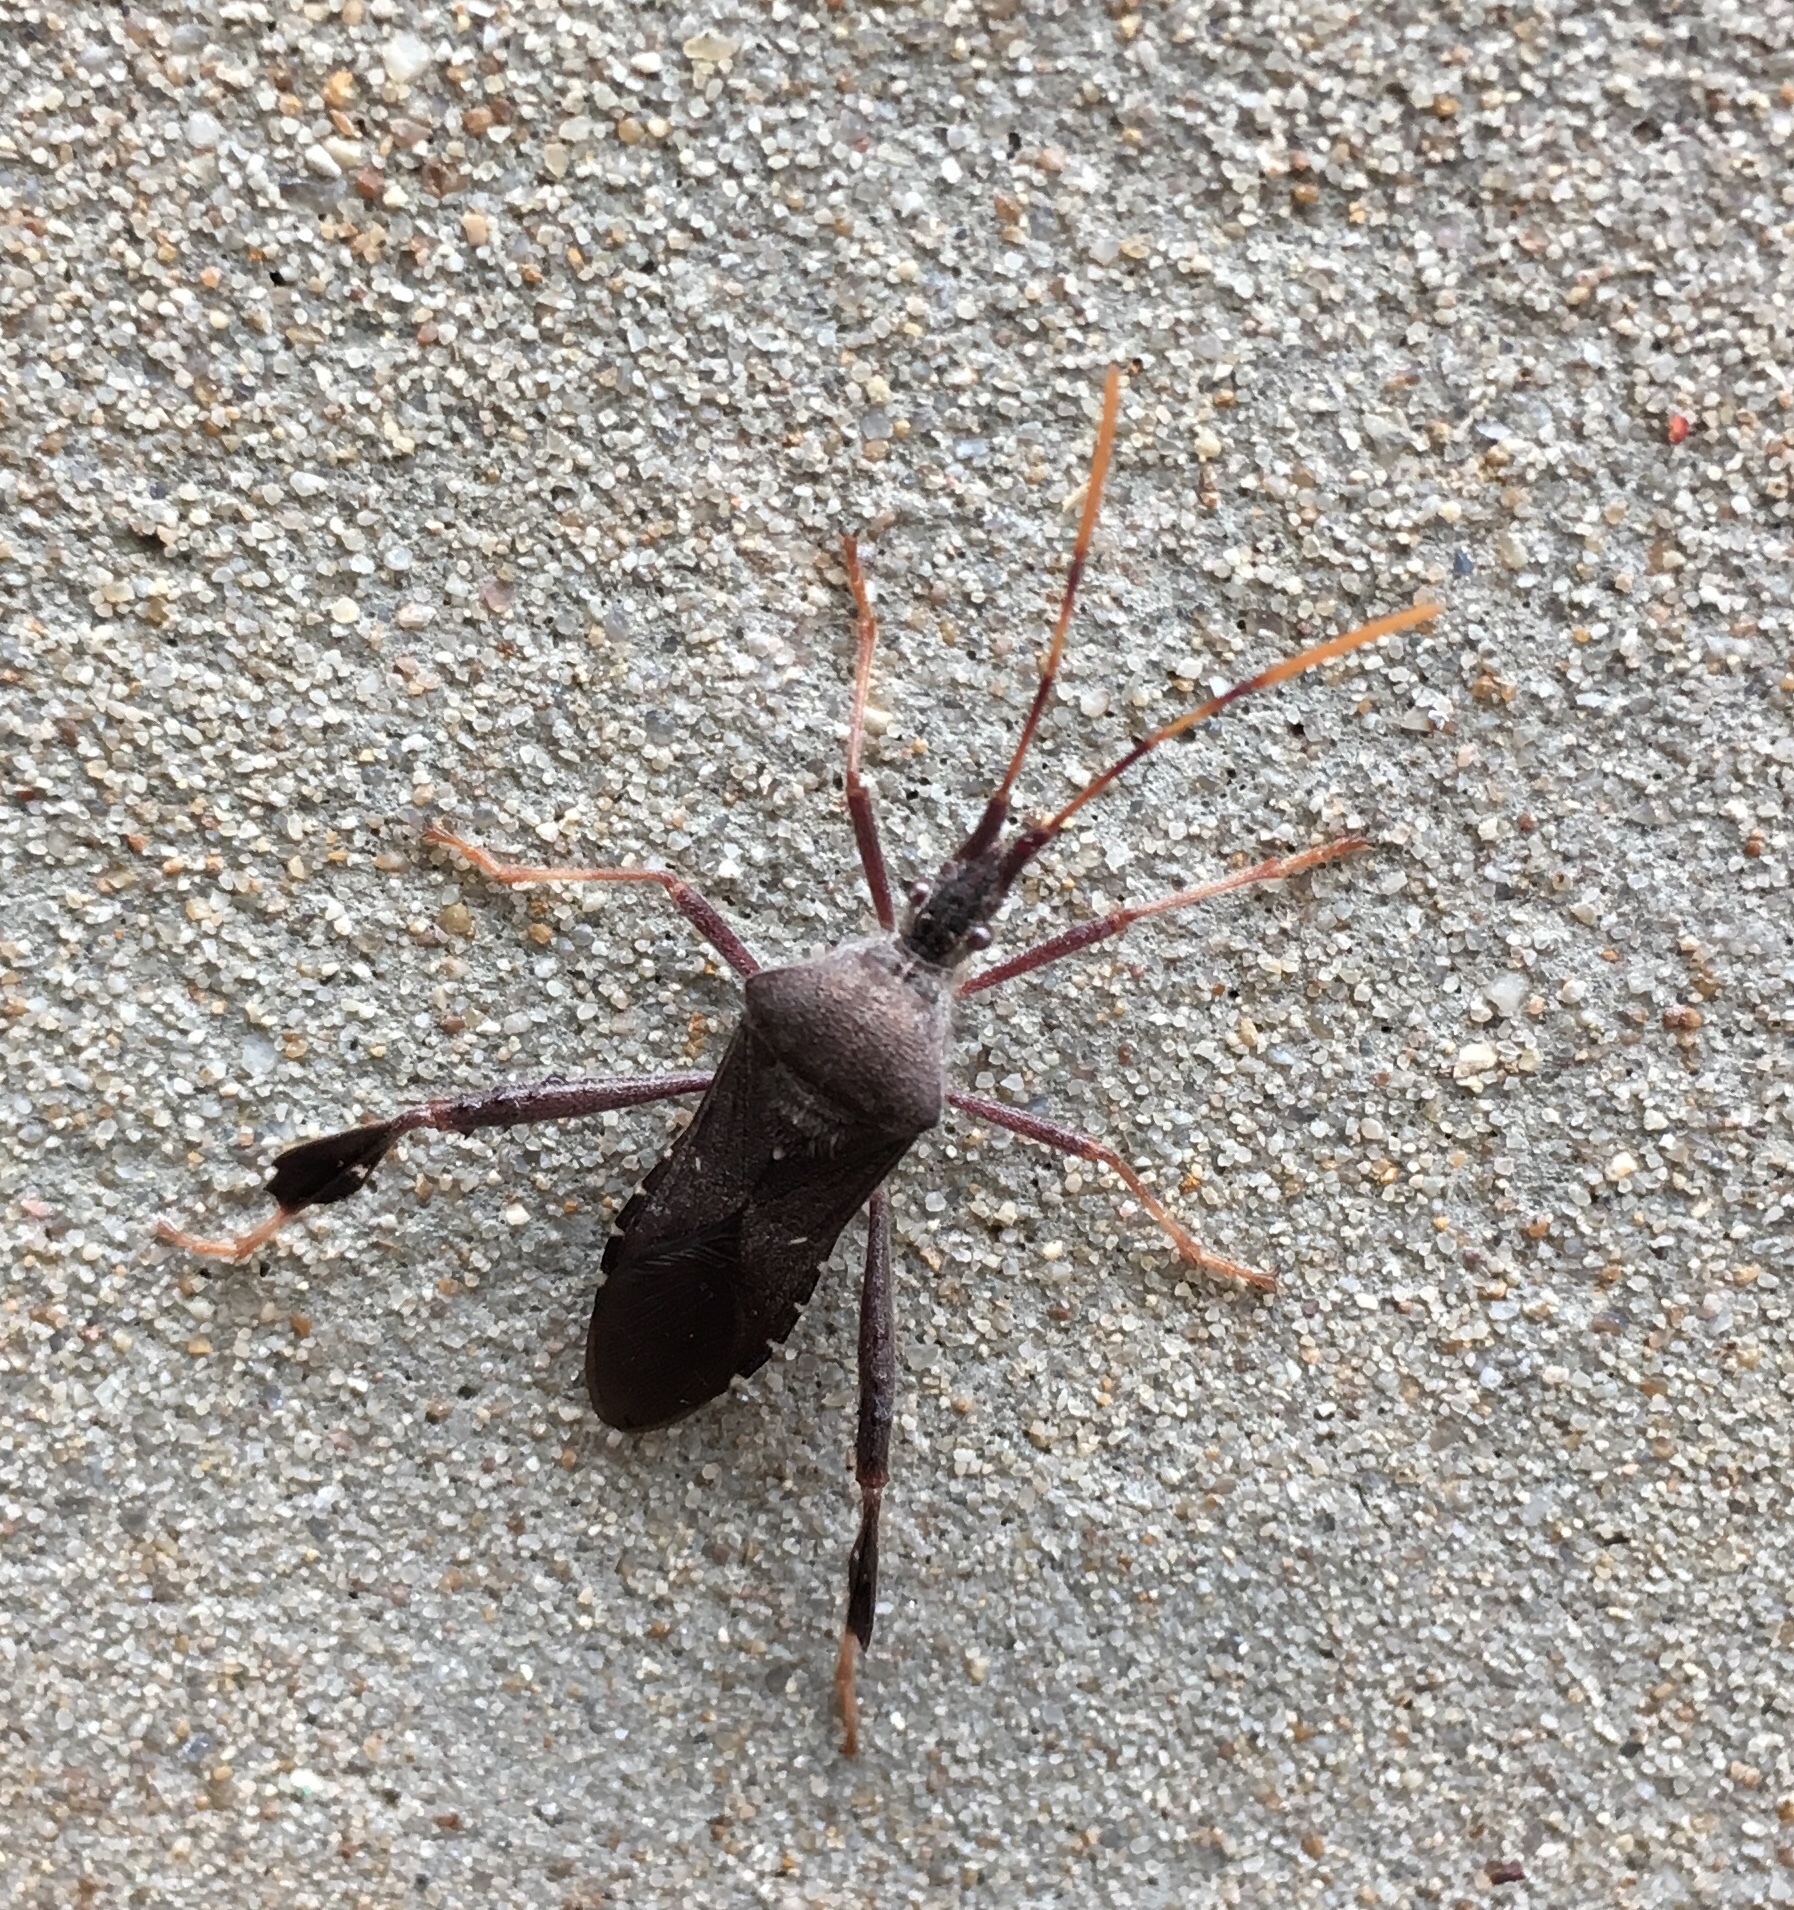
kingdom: Animalia
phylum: Arthropoda
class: Insecta
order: Hemiptera
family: Coreidae
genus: Leptoglossus
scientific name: Leptoglossus oppositus
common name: Northern leaf-footed bug
